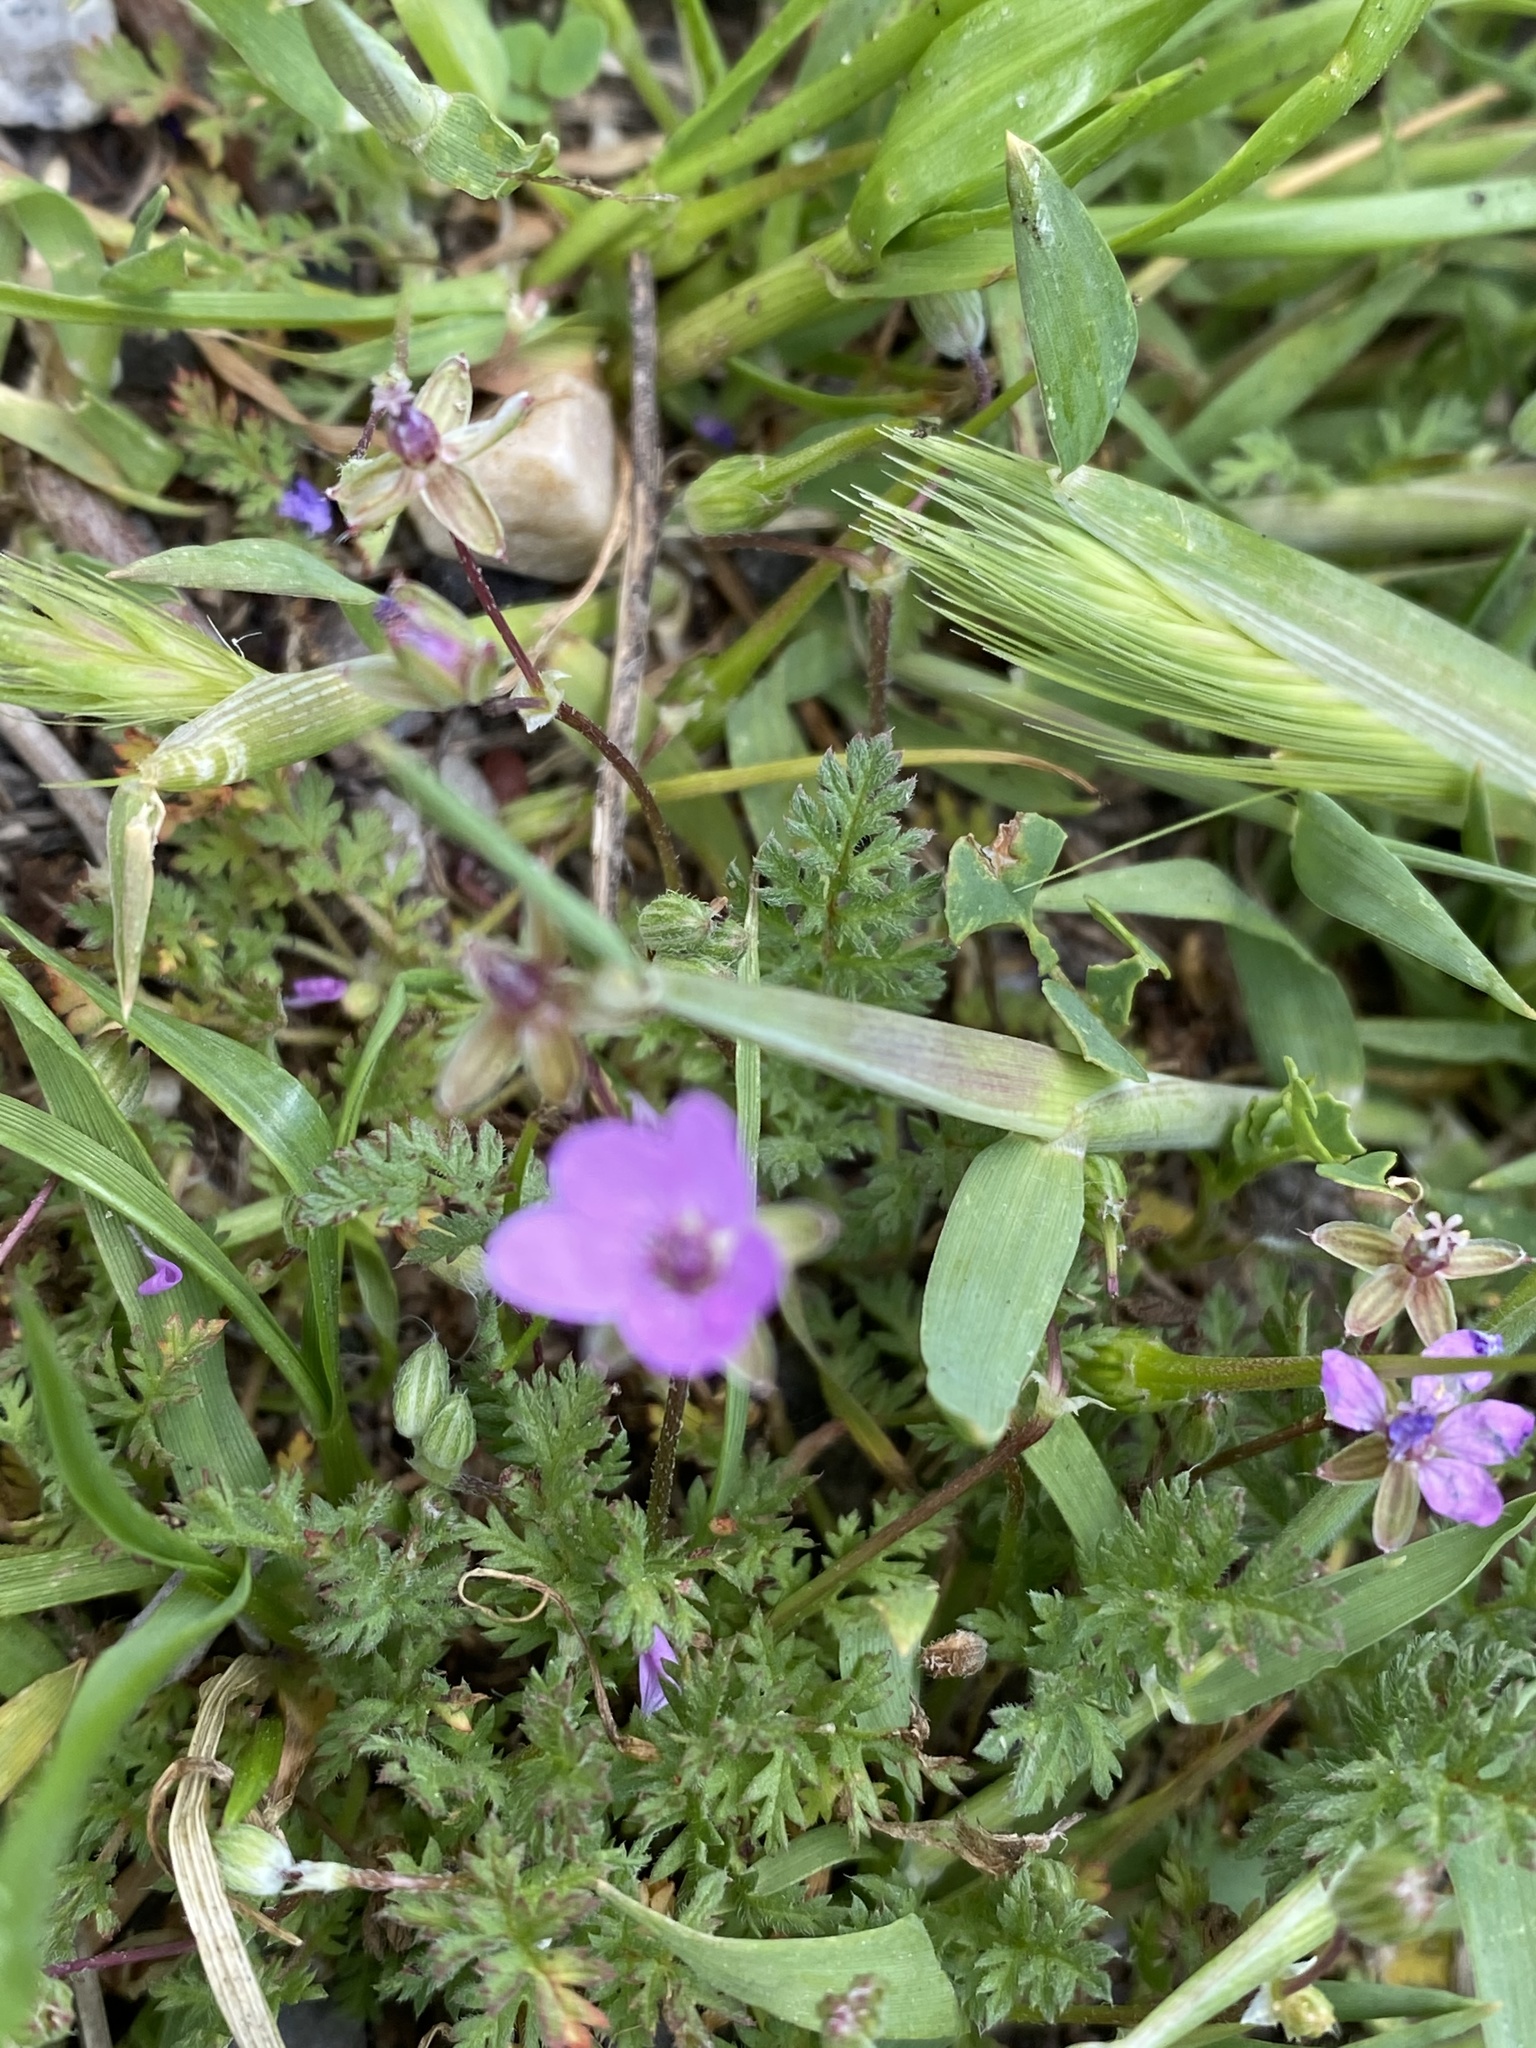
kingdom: Plantae
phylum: Tracheophyta
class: Magnoliopsida
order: Geraniales
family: Geraniaceae
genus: Erodium
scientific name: Erodium cicutarium
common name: Common stork's-bill
